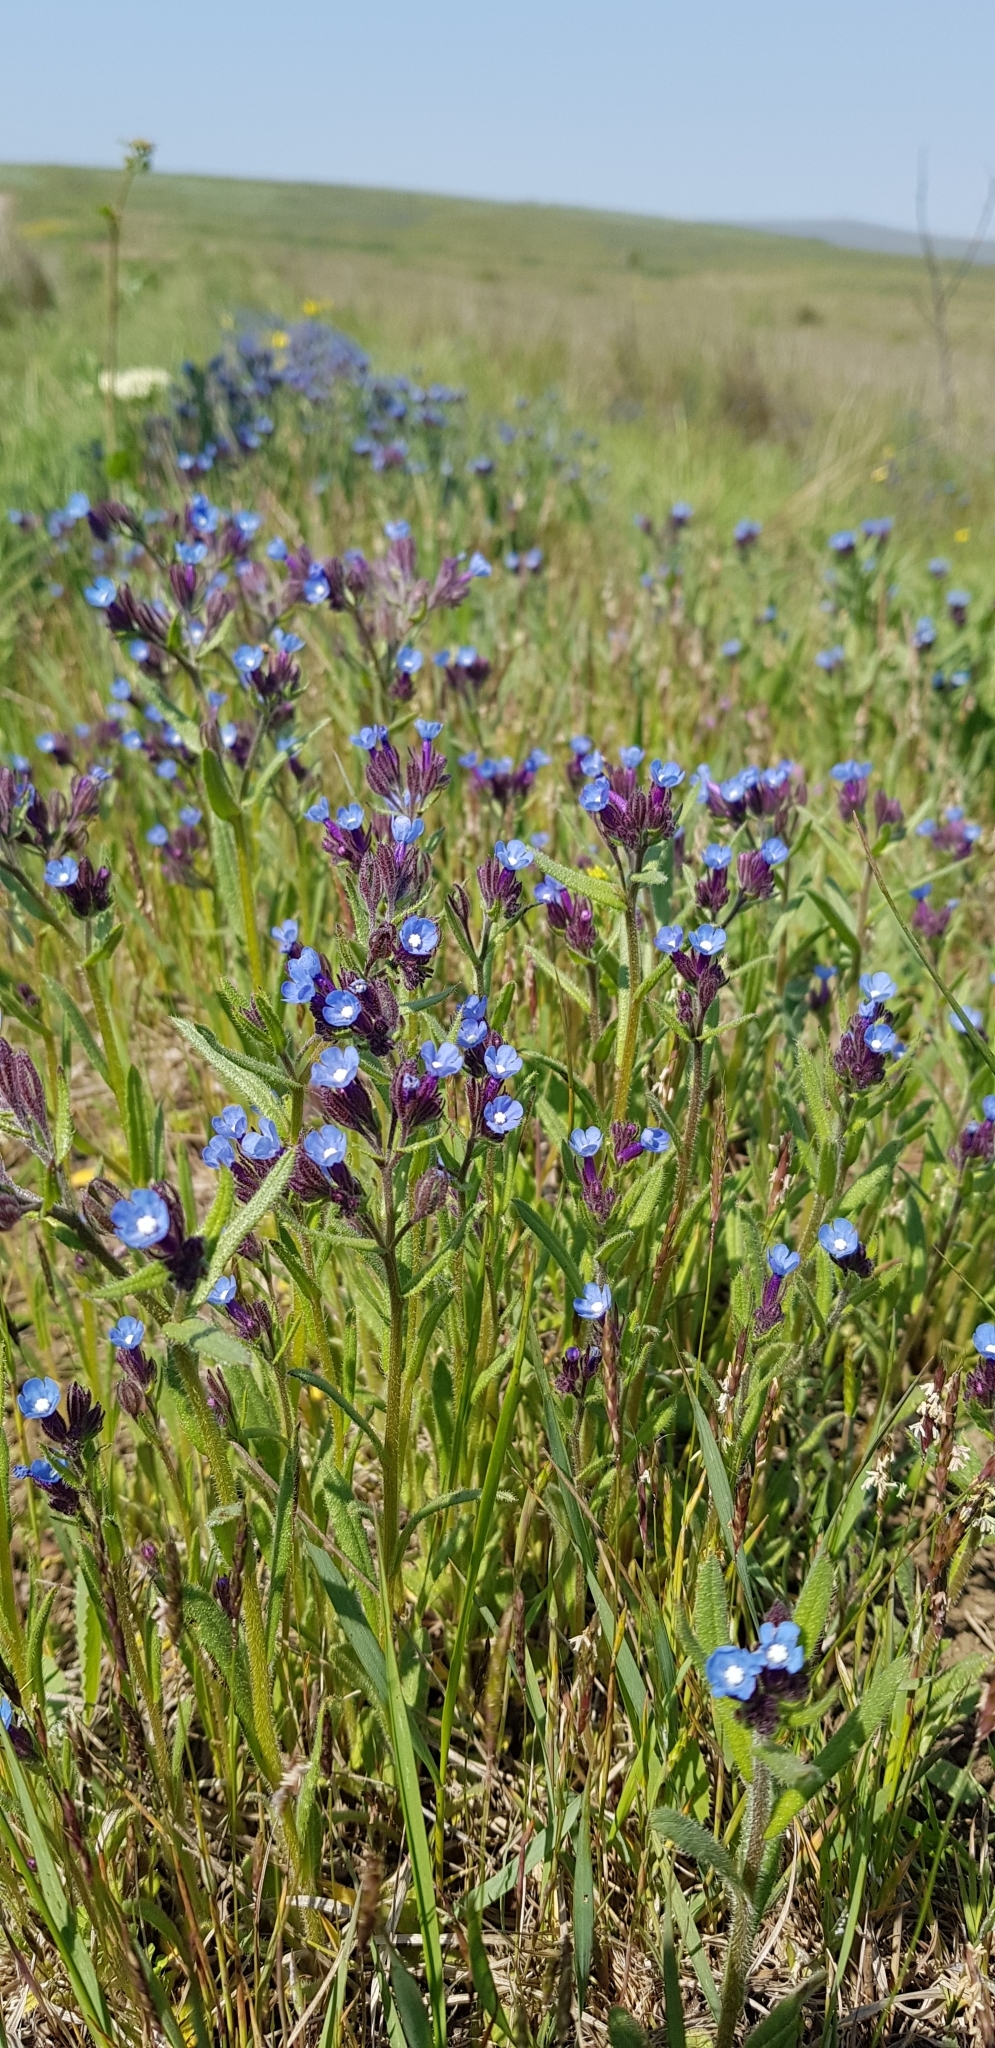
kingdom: Plantae
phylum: Tracheophyta
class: Magnoliopsida
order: Boraginales
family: Boraginaceae
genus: Anchusa
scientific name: Anchusa azurea
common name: Garden anchusa
